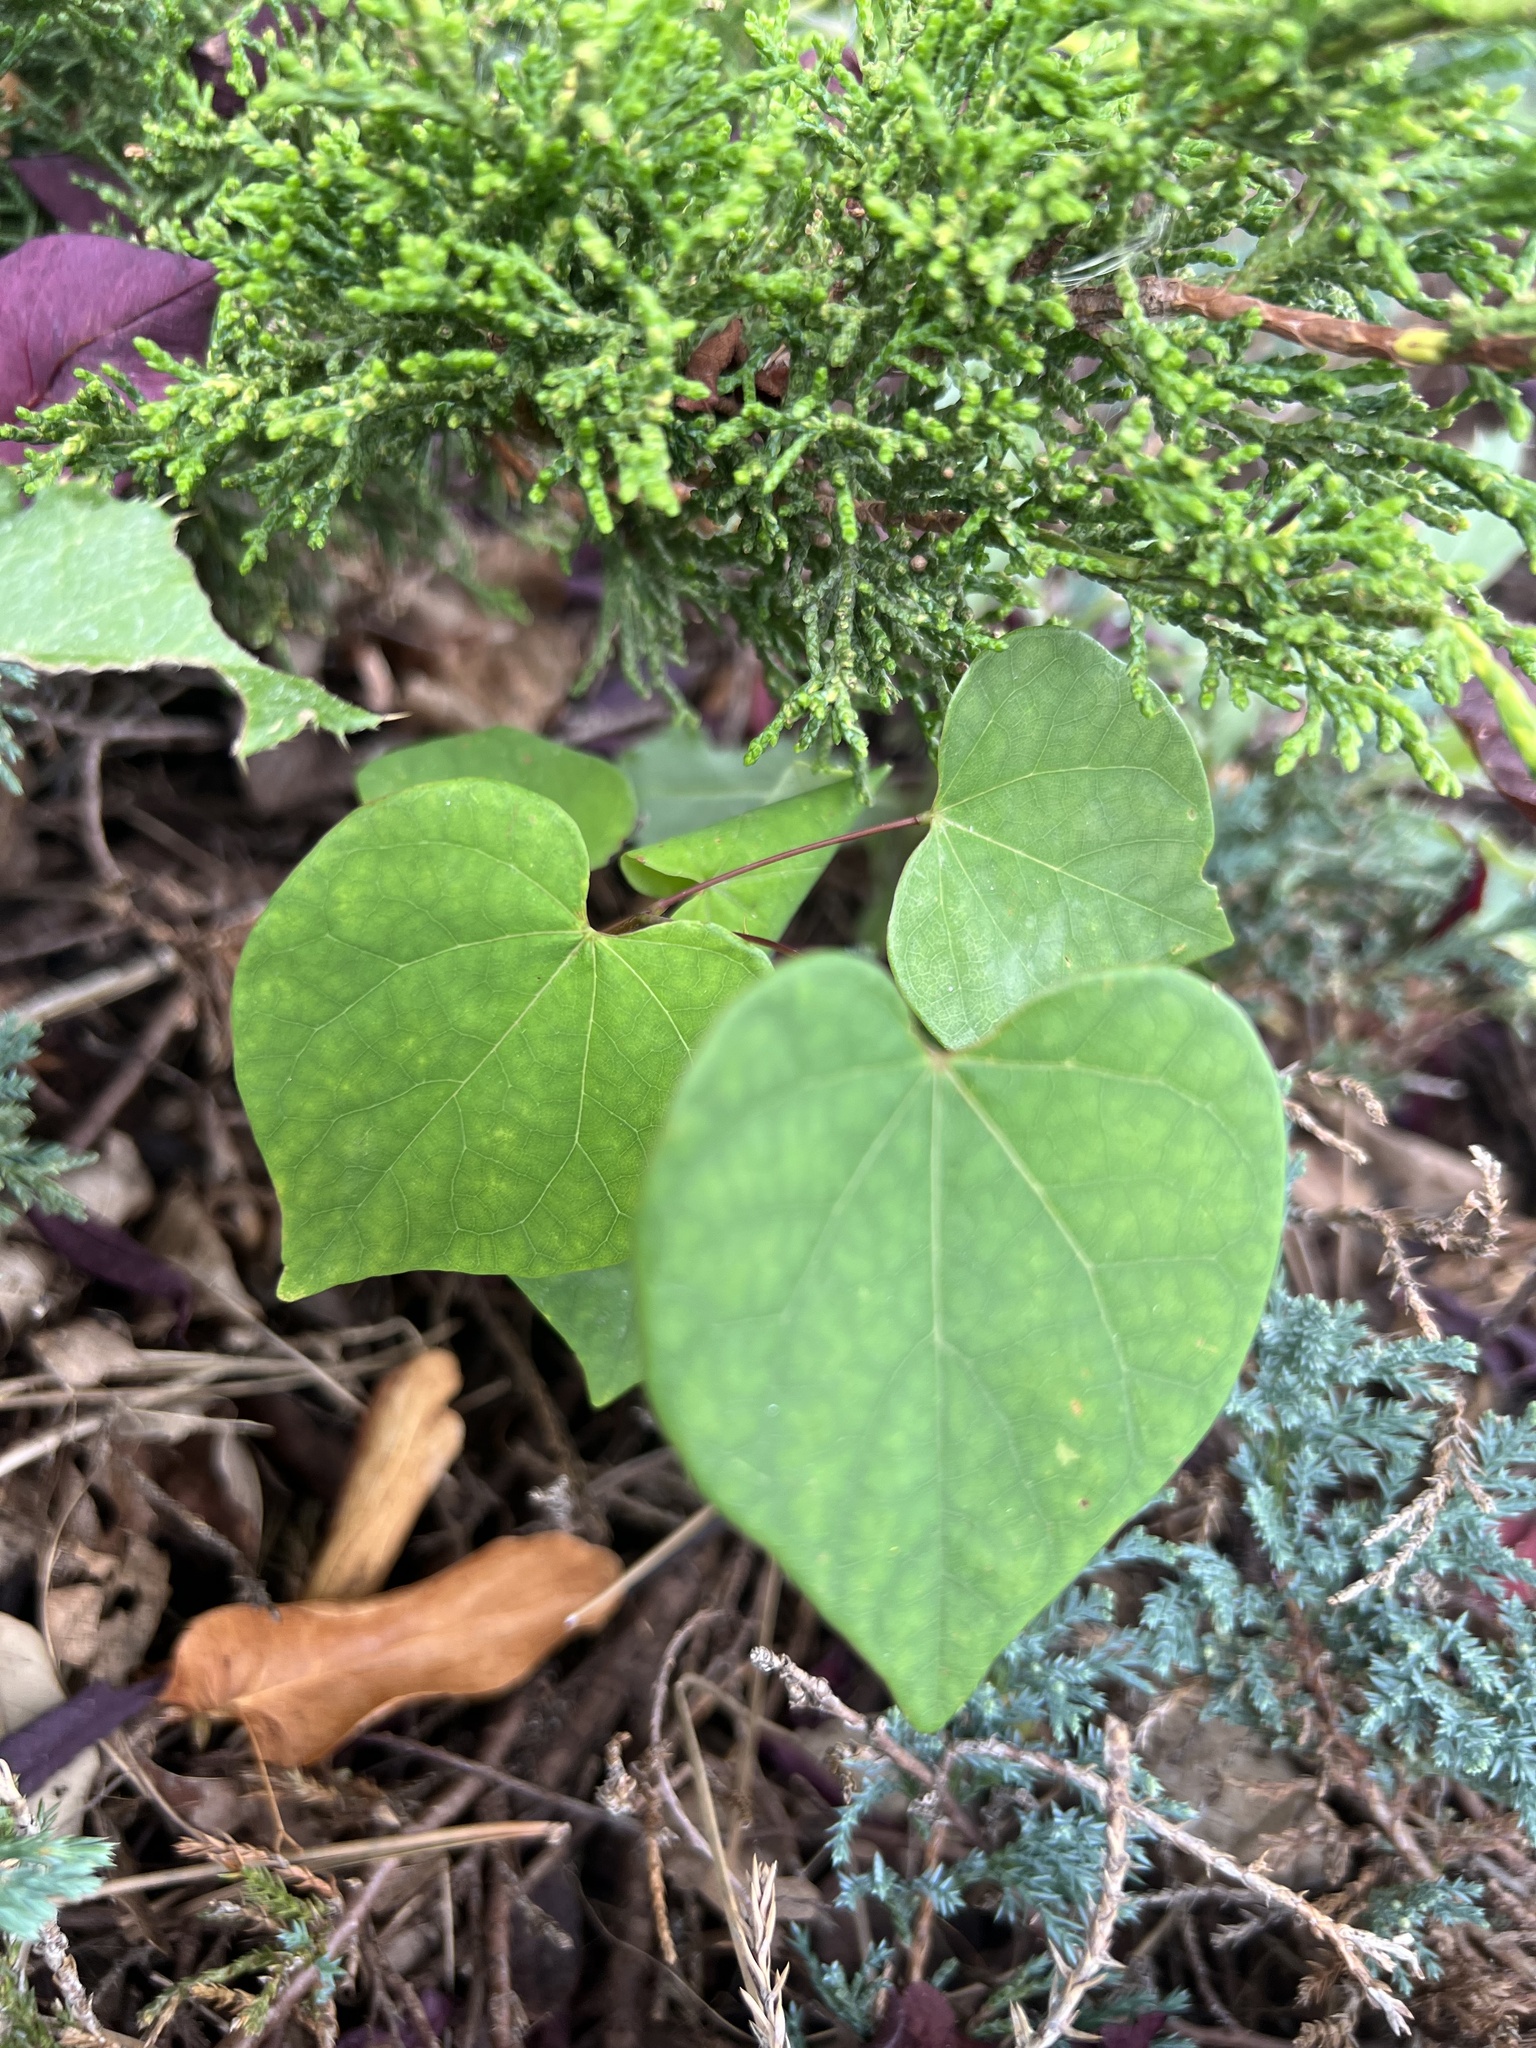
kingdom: Plantae
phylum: Tracheophyta
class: Magnoliopsida
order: Fabales
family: Fabaceae
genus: Cercis
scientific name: Cercis canadensis
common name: Eastern redbud
